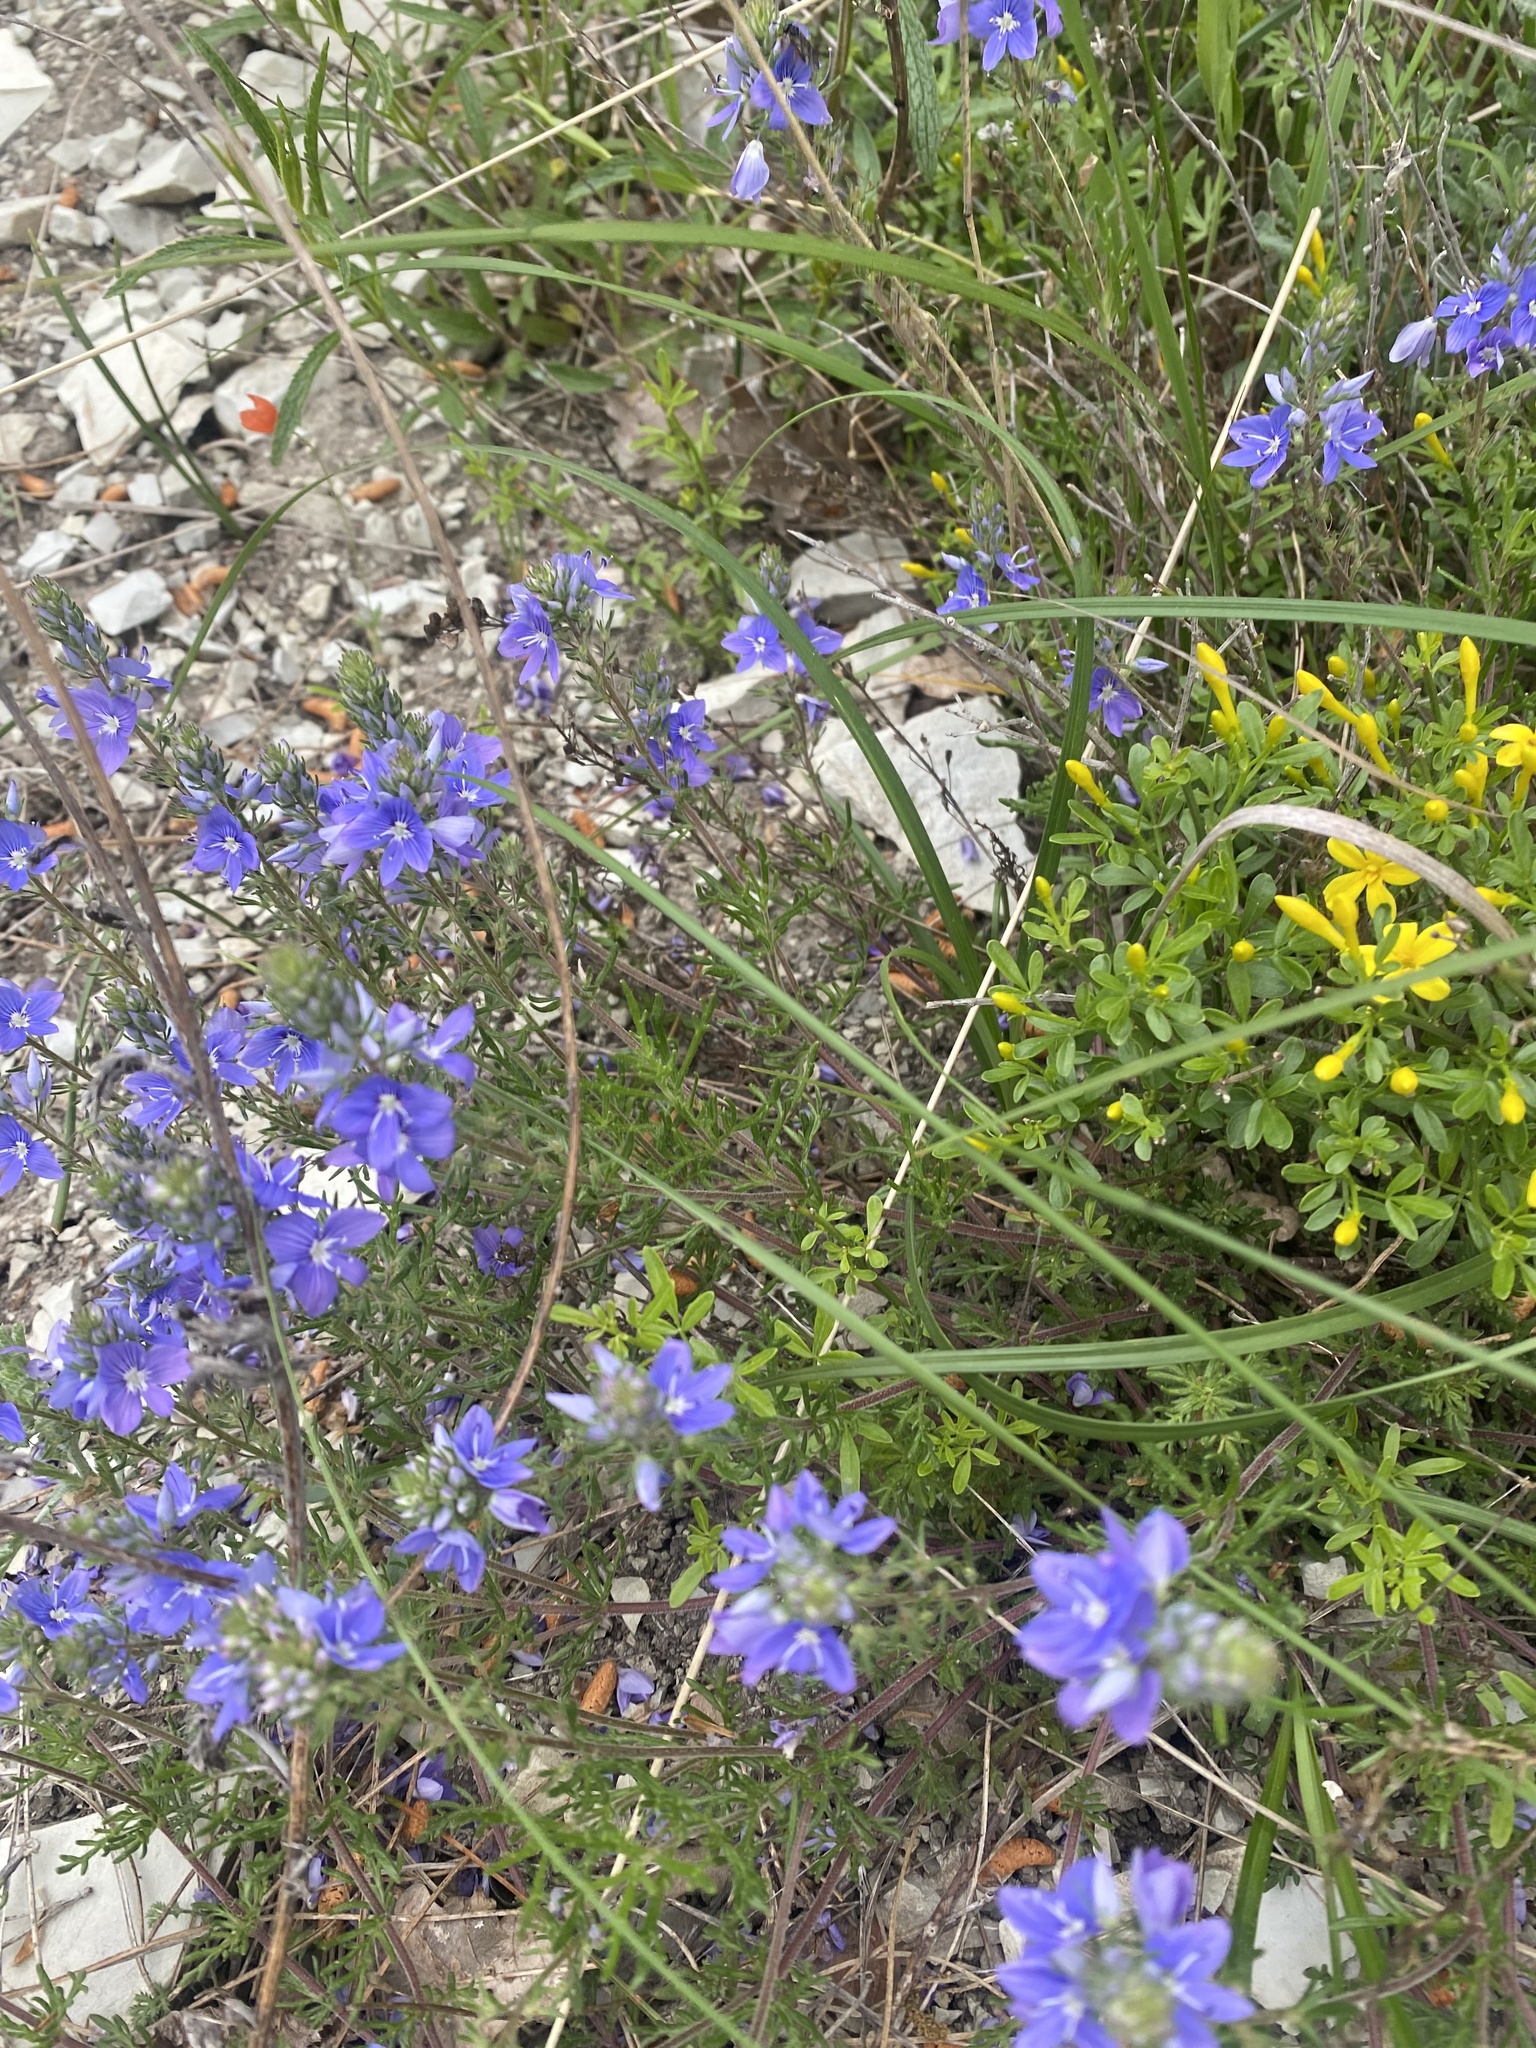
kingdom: Plantae
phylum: Tracheophyta
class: Magnoliopsida
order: Lamiales
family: Plantaginaceae
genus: Veronica
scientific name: Veronica capsellicarpa
